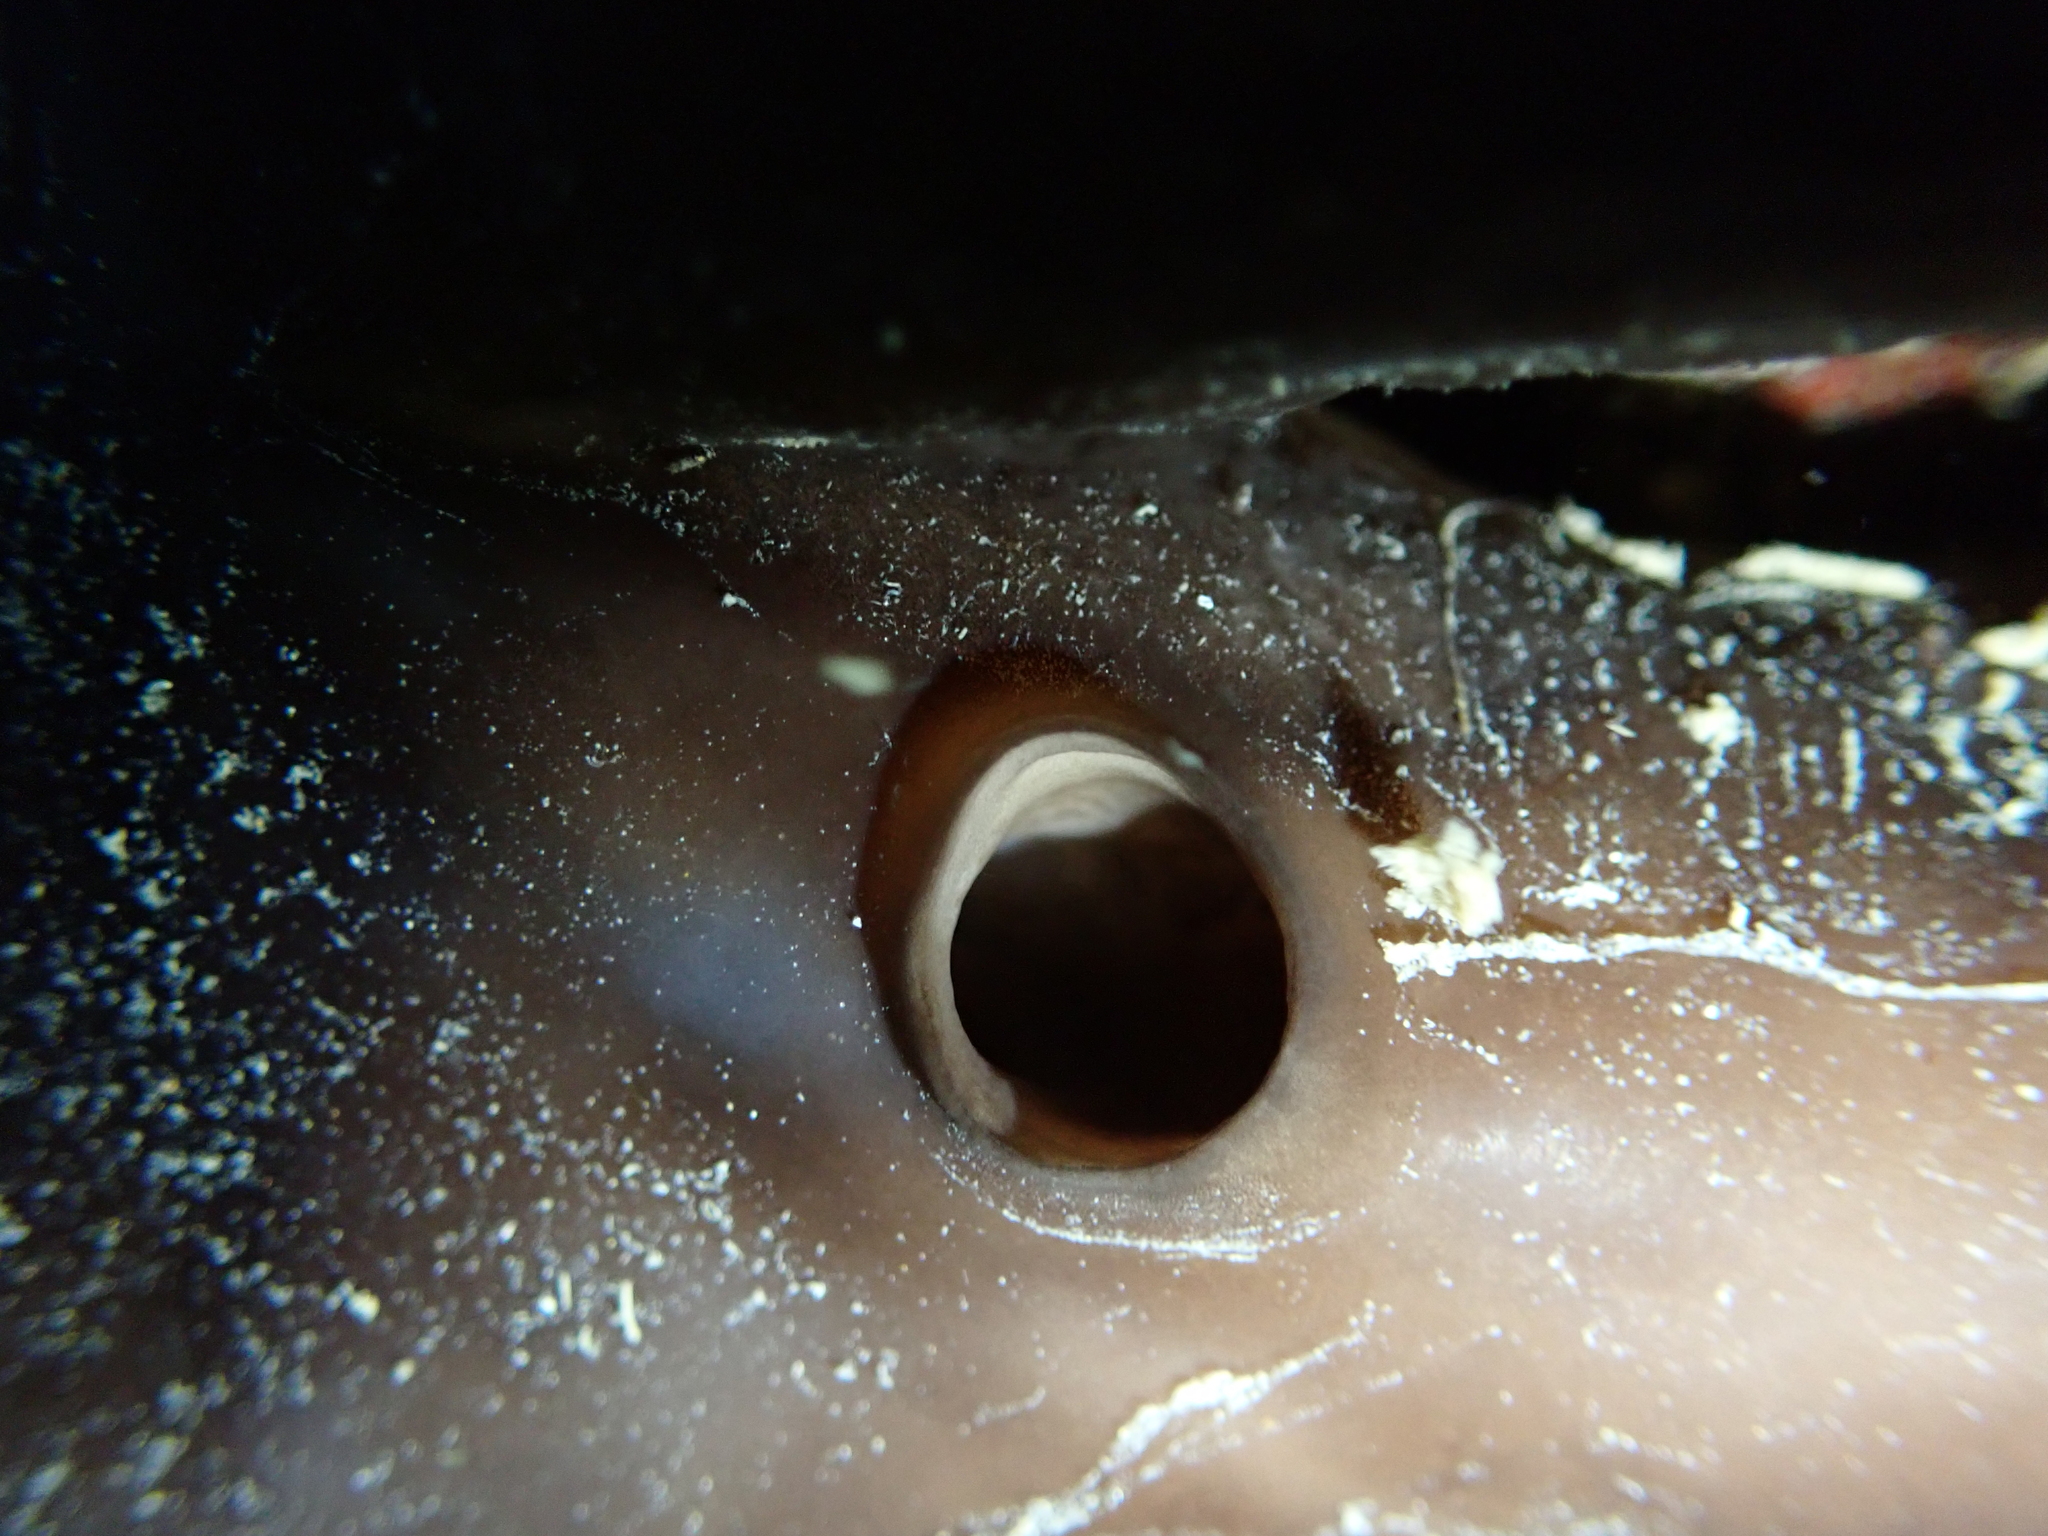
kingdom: Animalia
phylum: Porifera
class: Demospongiae
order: Chondrosiida
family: Chondrosiidae
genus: Chondrosia
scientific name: Chondrosia reniformis
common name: Chicken liver sponge
